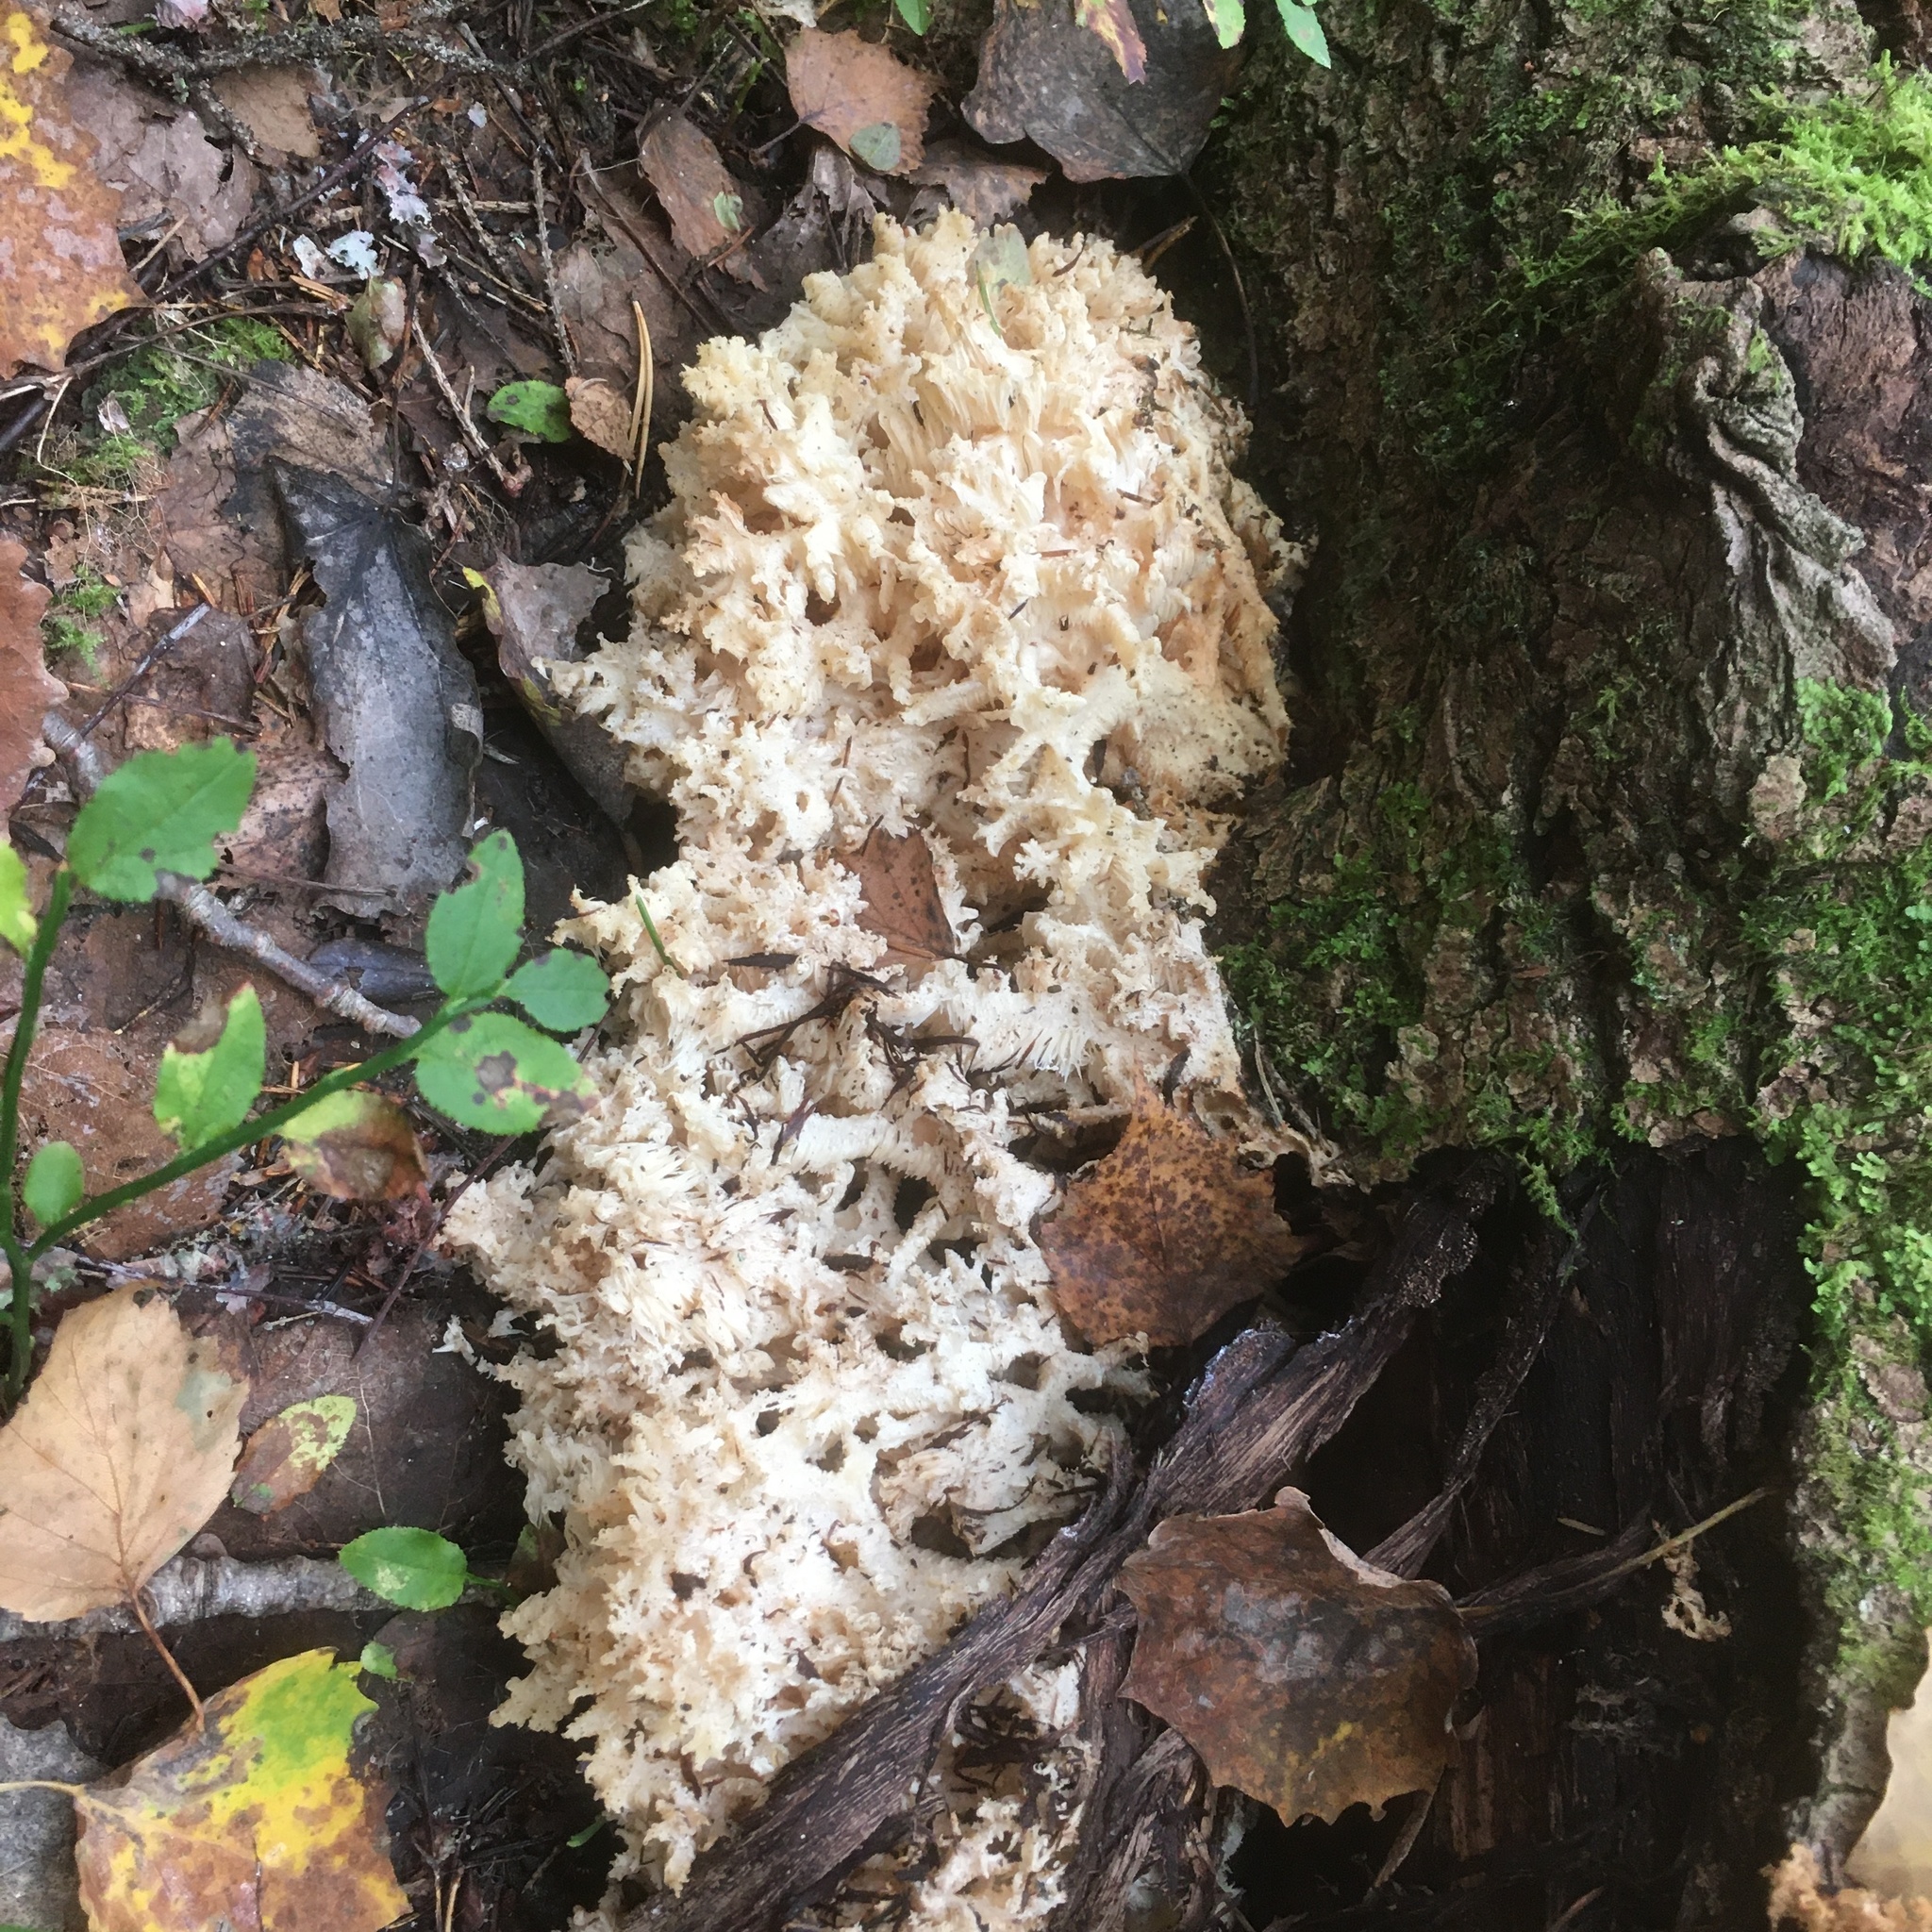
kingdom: Fungi
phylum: Basidiomycota
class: Agaricomycetes
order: Russulales
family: Hericiaceae
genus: Hericium
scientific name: Hericium coralloides
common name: Coral tooth
